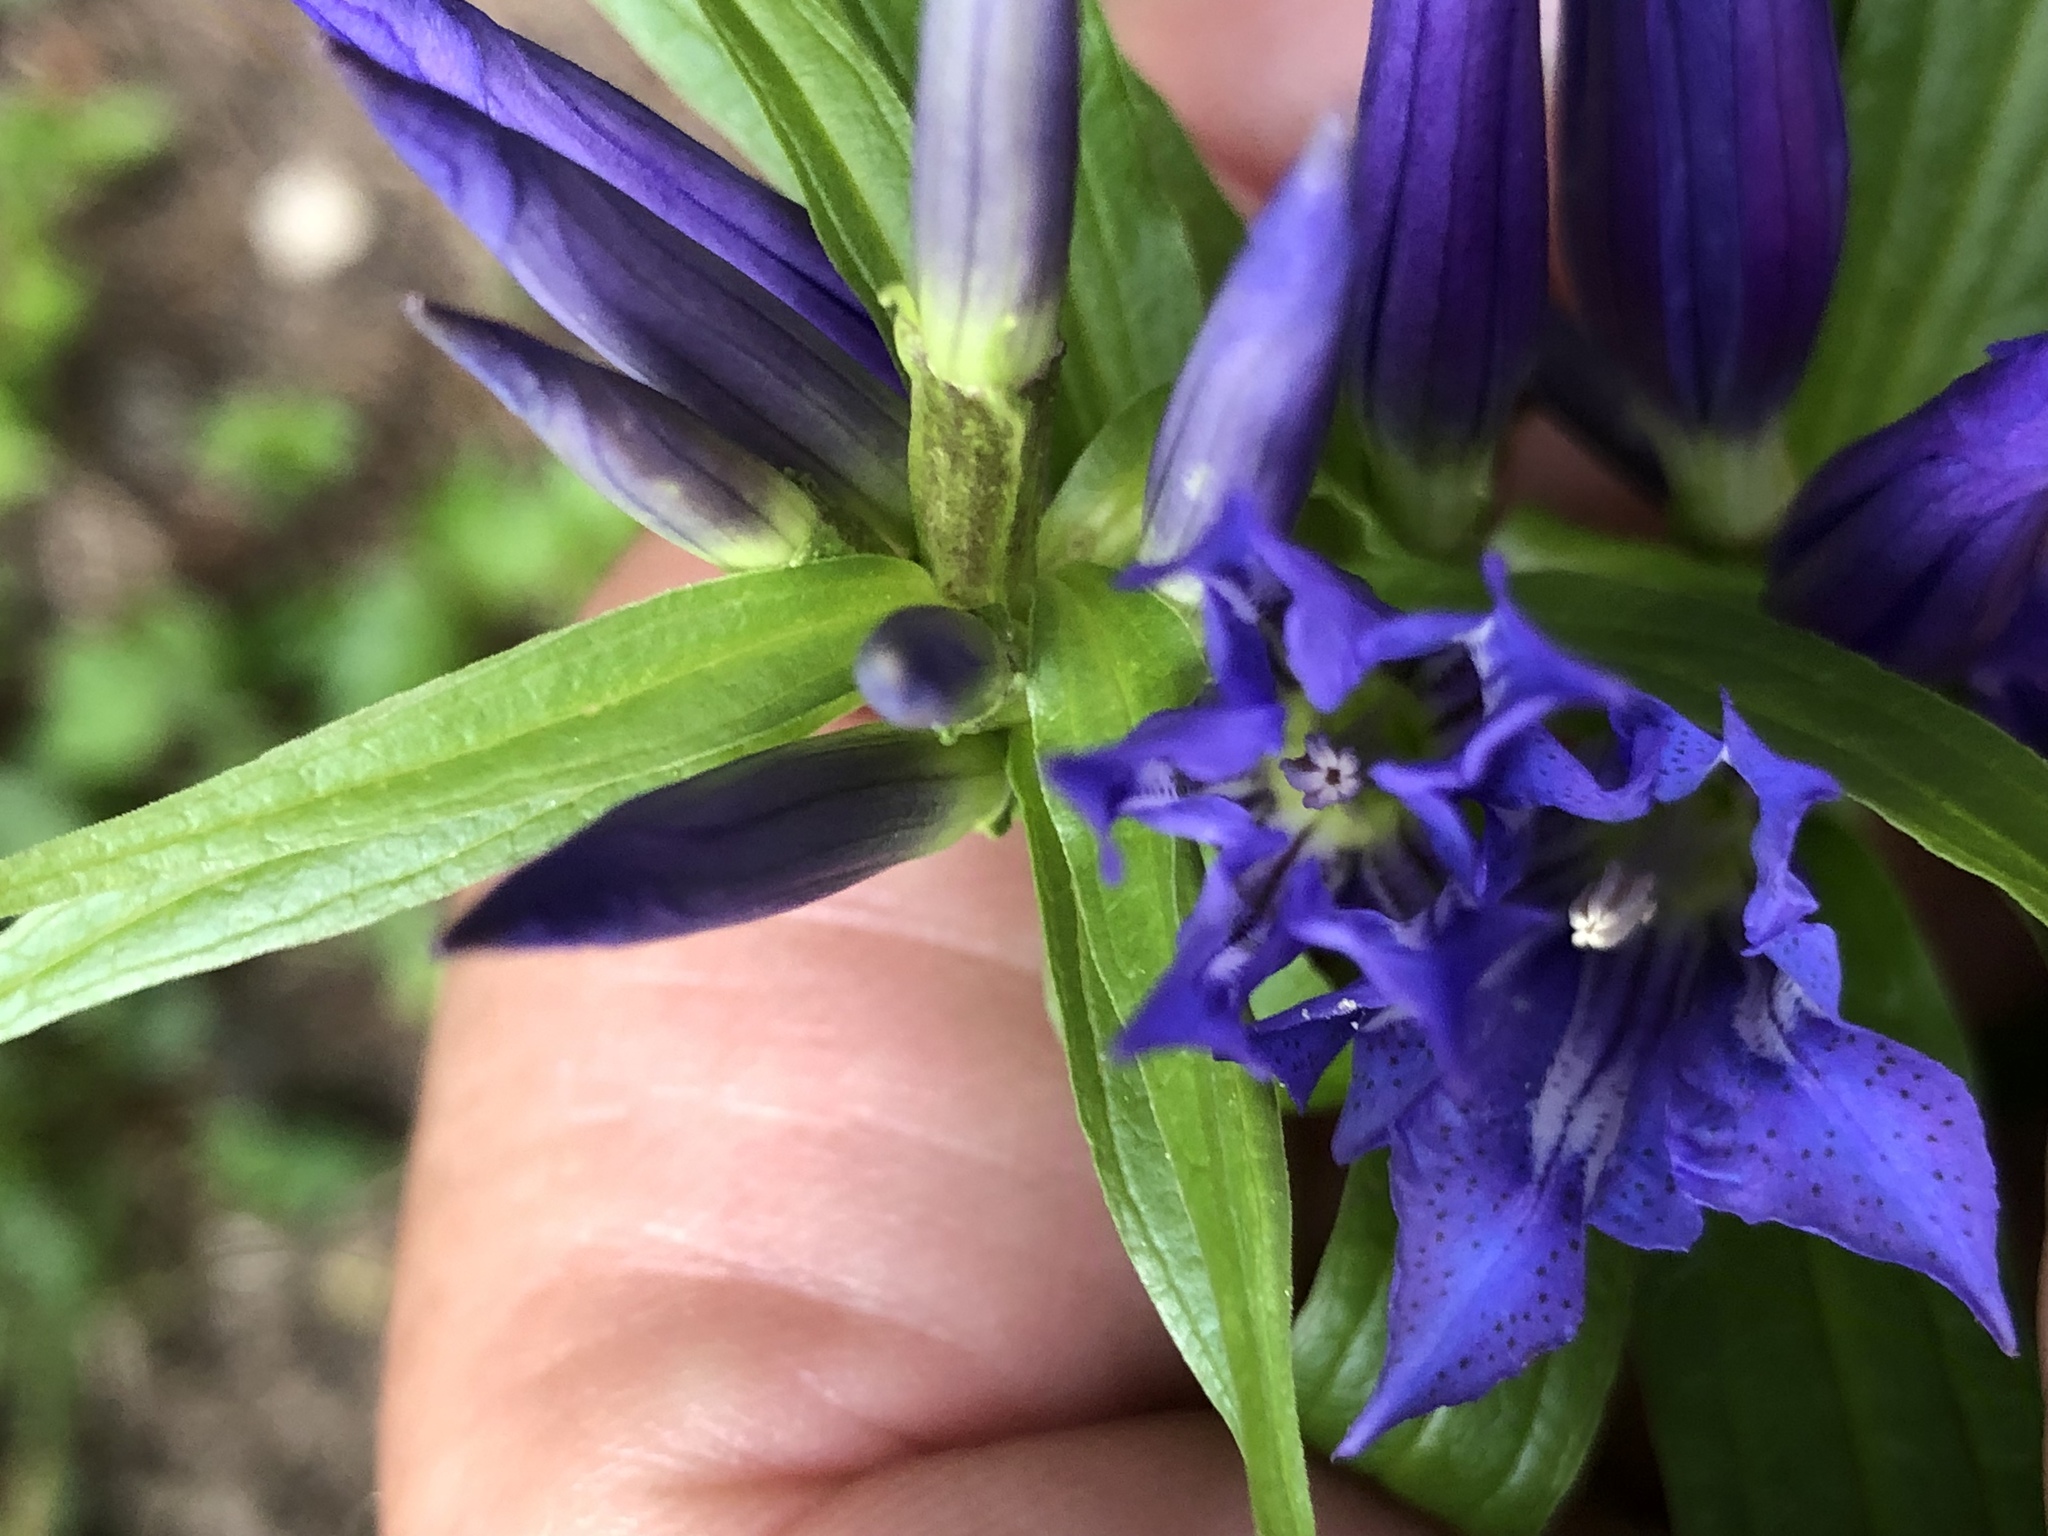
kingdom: Plantae
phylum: Tracheophyta
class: Magnoliopsida
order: Gentianales
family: Gentianaceae
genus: Gentiana
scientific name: Gentiana asclepiadea
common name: Willow gentian
